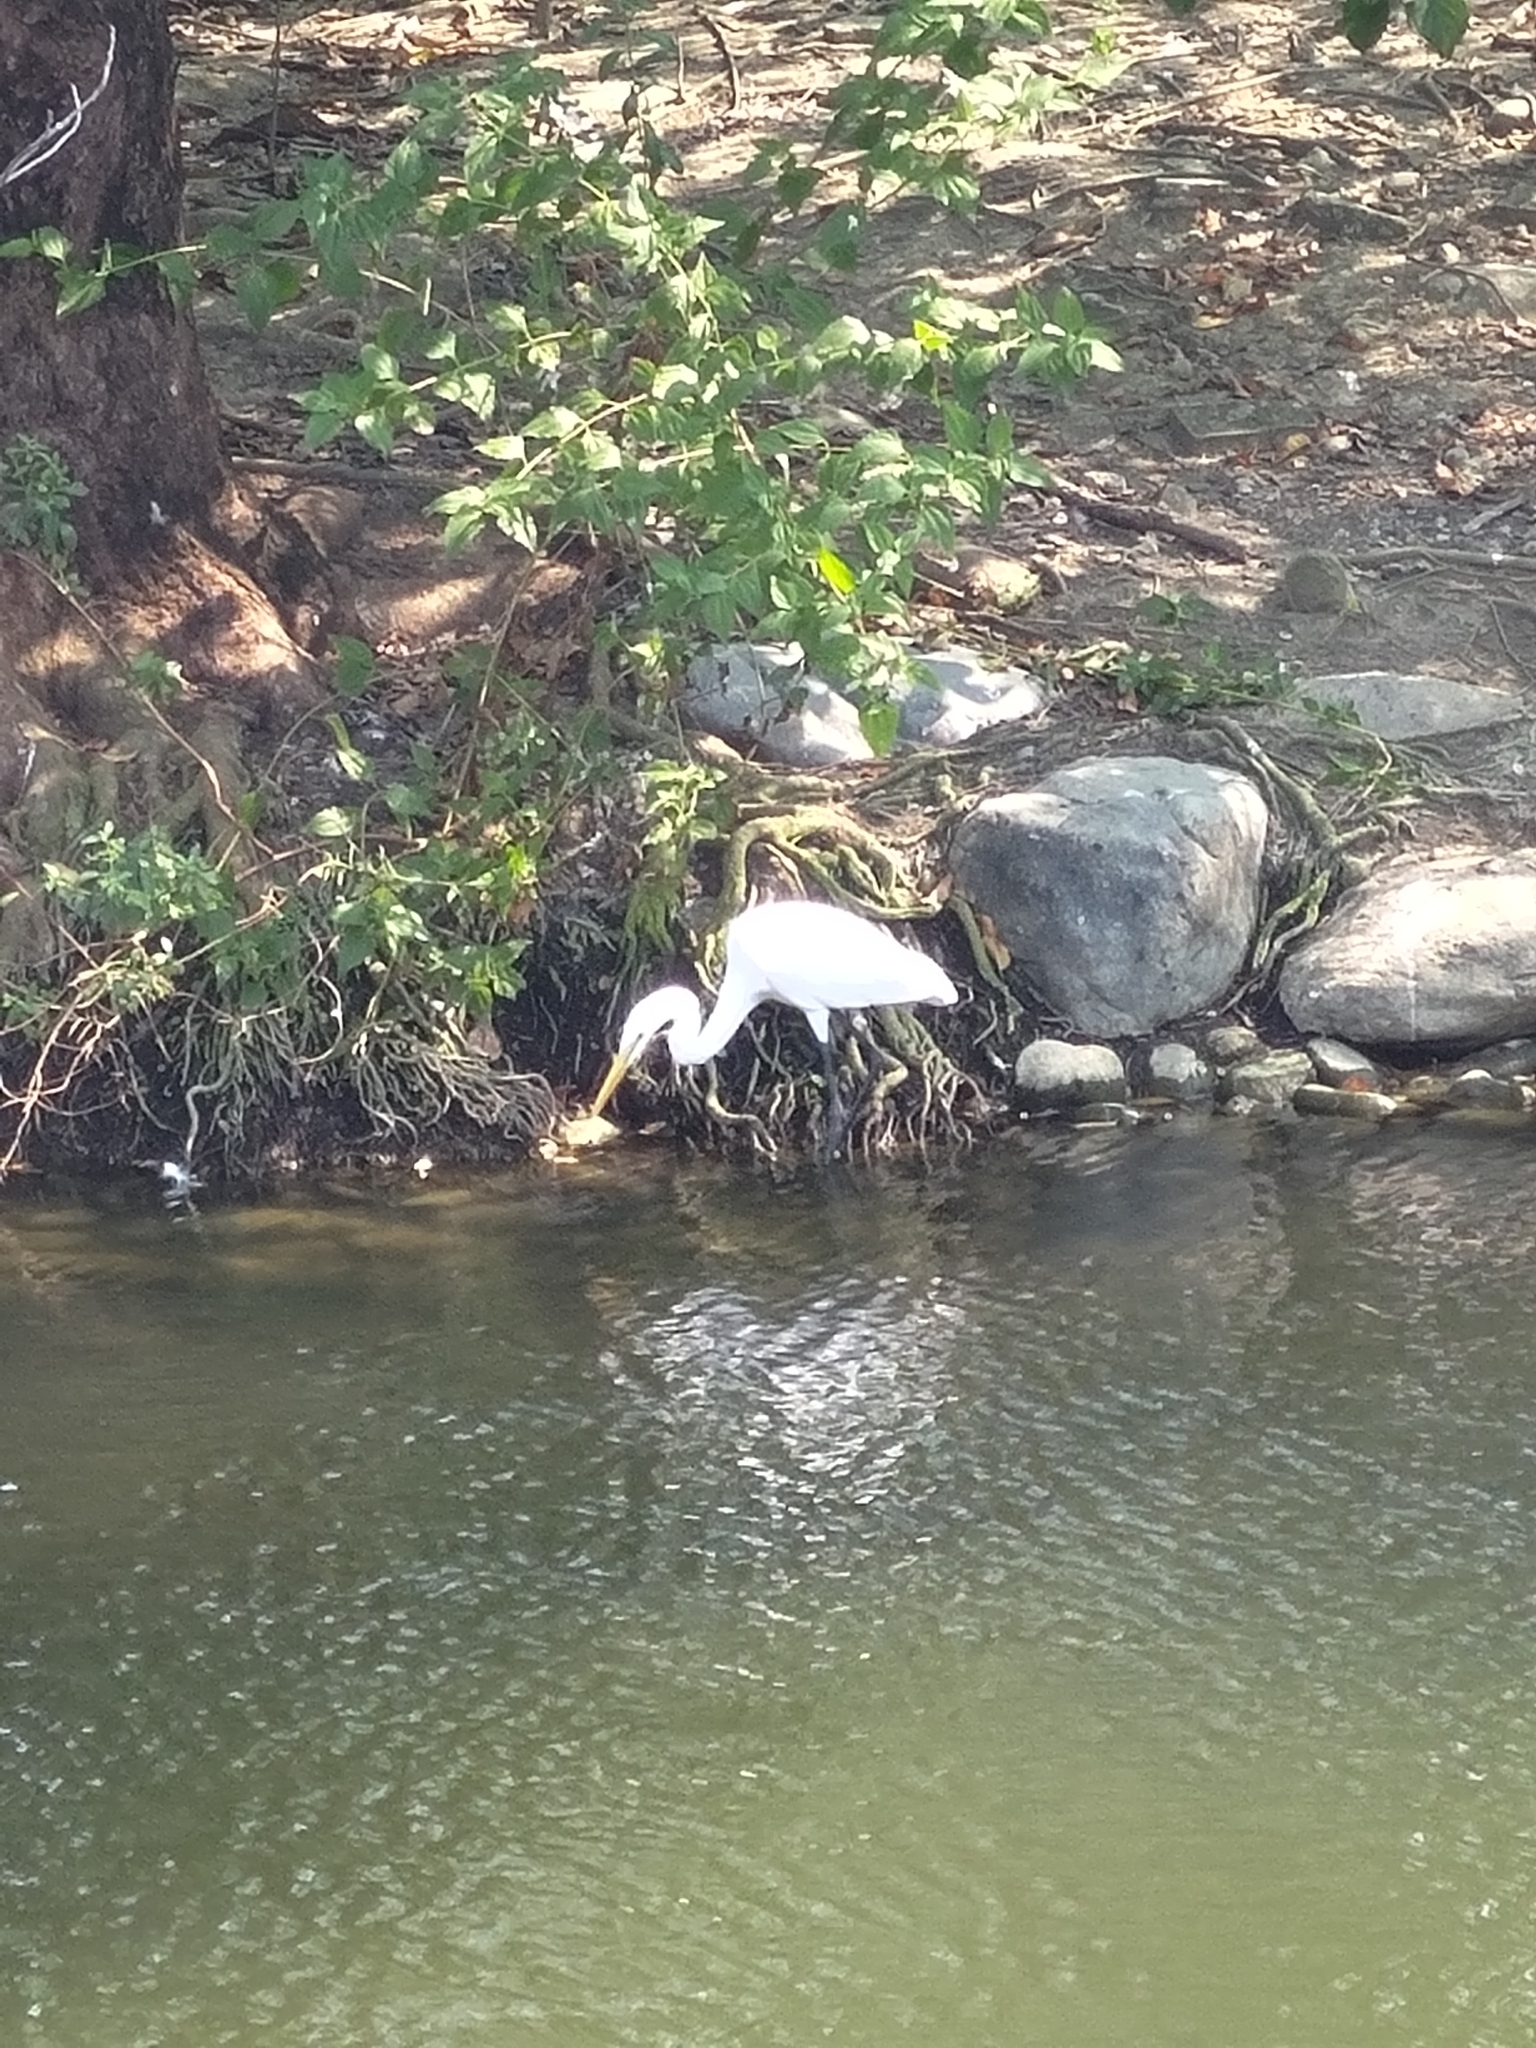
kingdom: Animalia
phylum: Chordata
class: Aves
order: Pelecaniformes
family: Ardeidae
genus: Ardea
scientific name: Ardea alba
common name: Great egret
